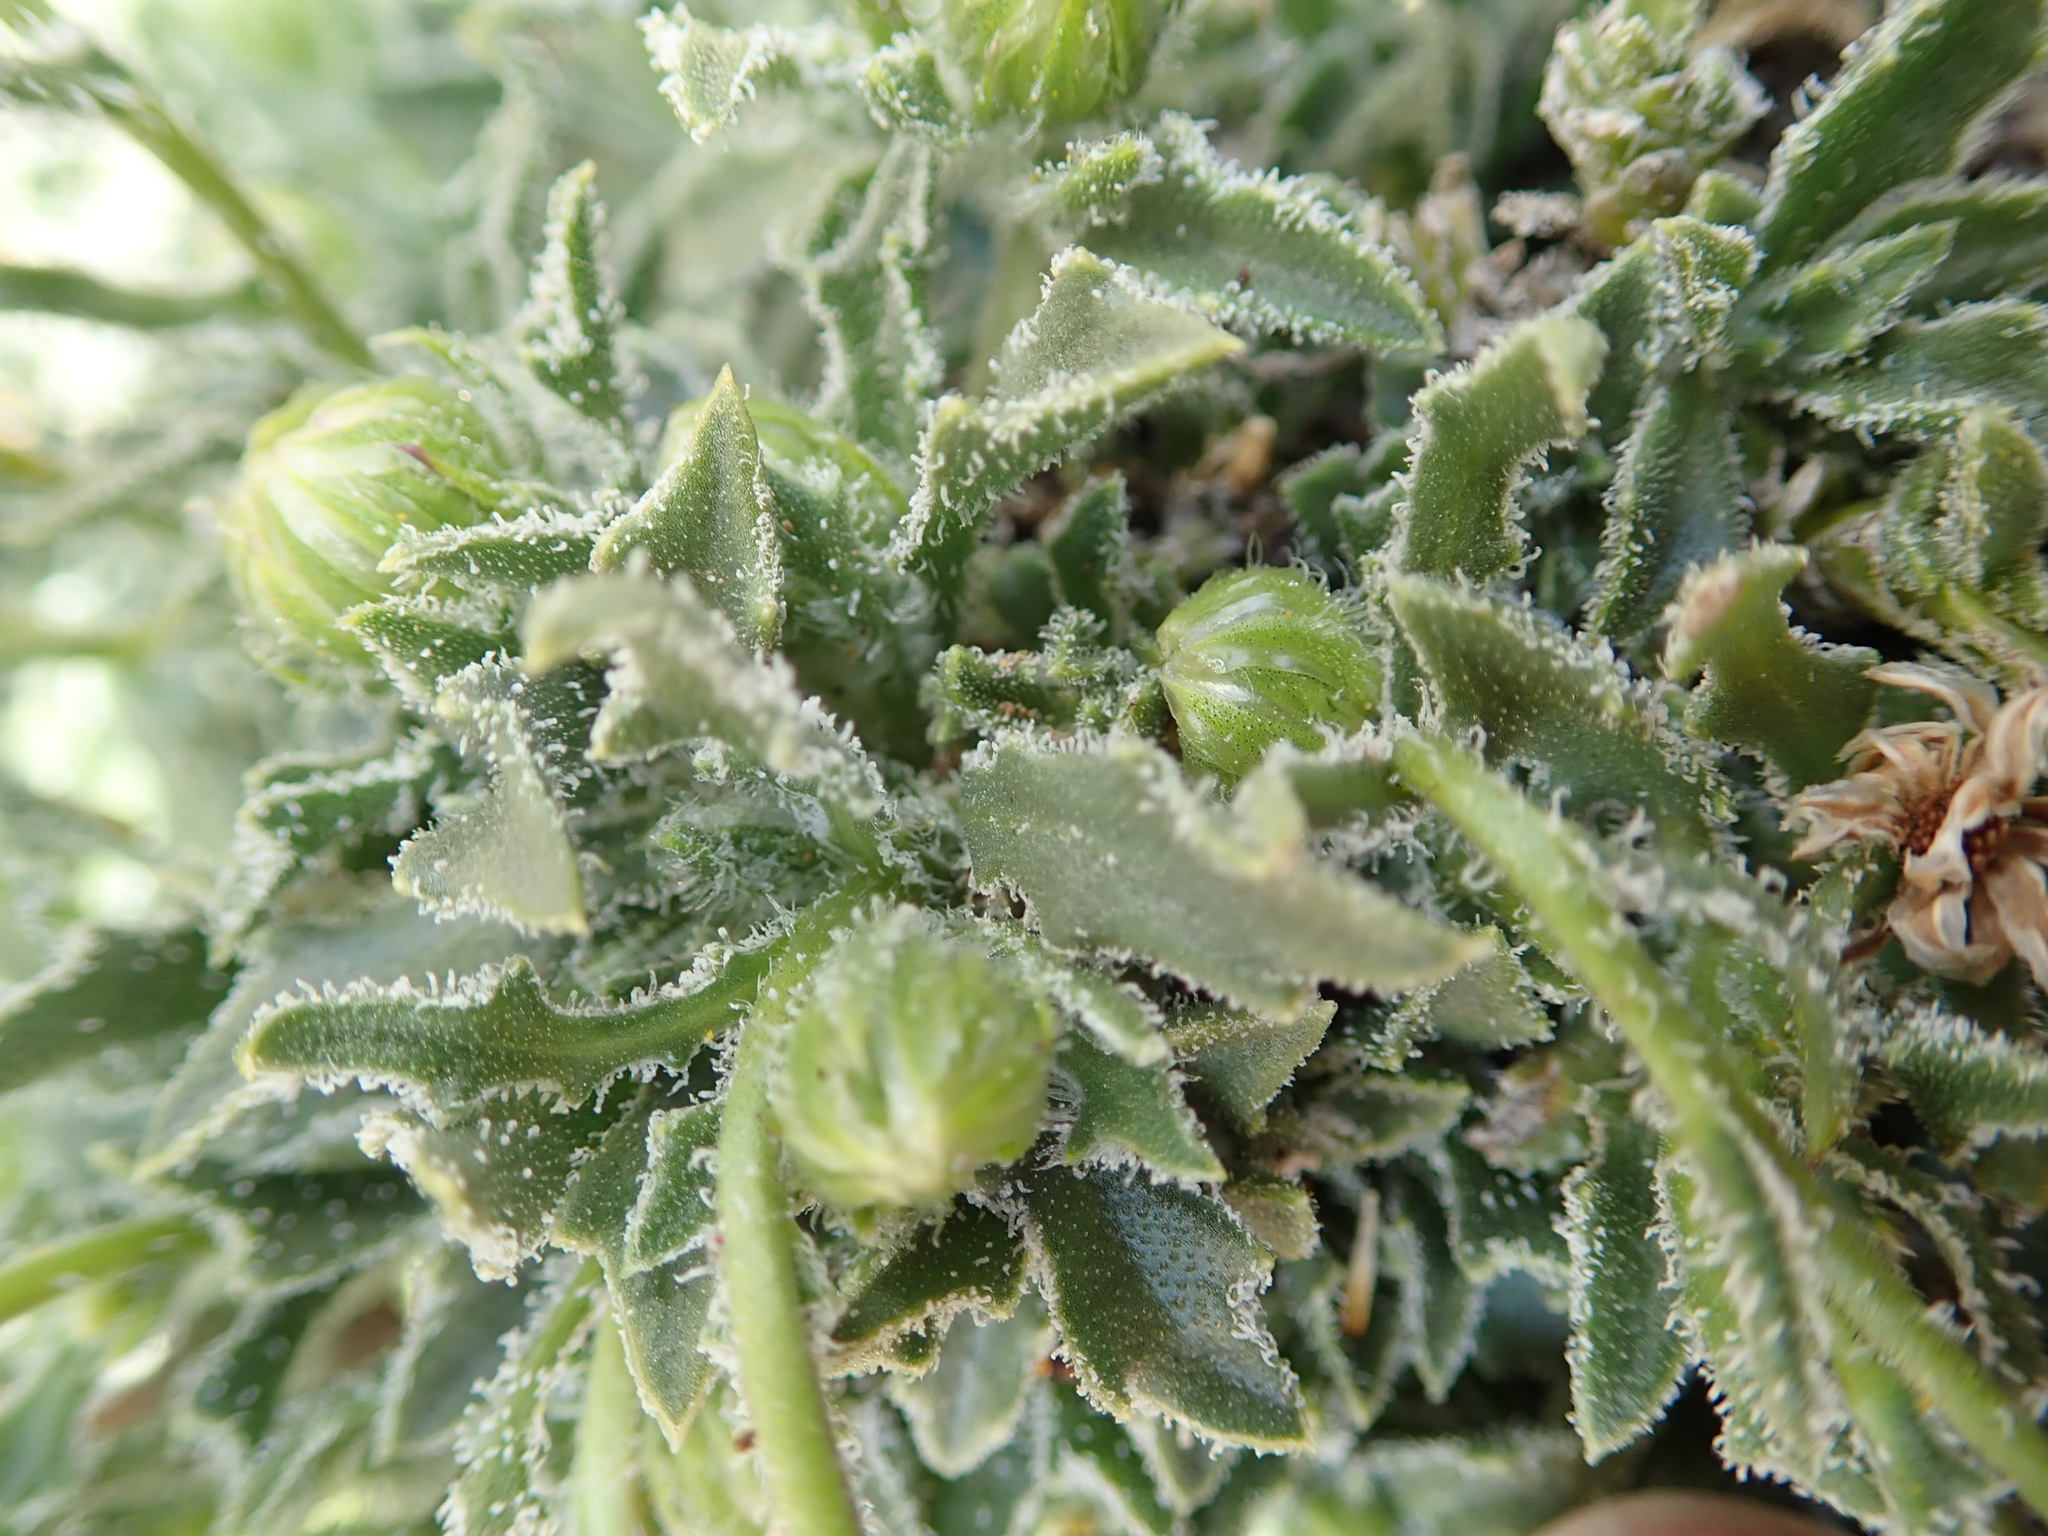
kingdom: Plantae
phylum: Tracheophyta
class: Magnoliopsida
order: Asterales
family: Asteraceae
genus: Osteospermum
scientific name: Osteospermum scariosum
